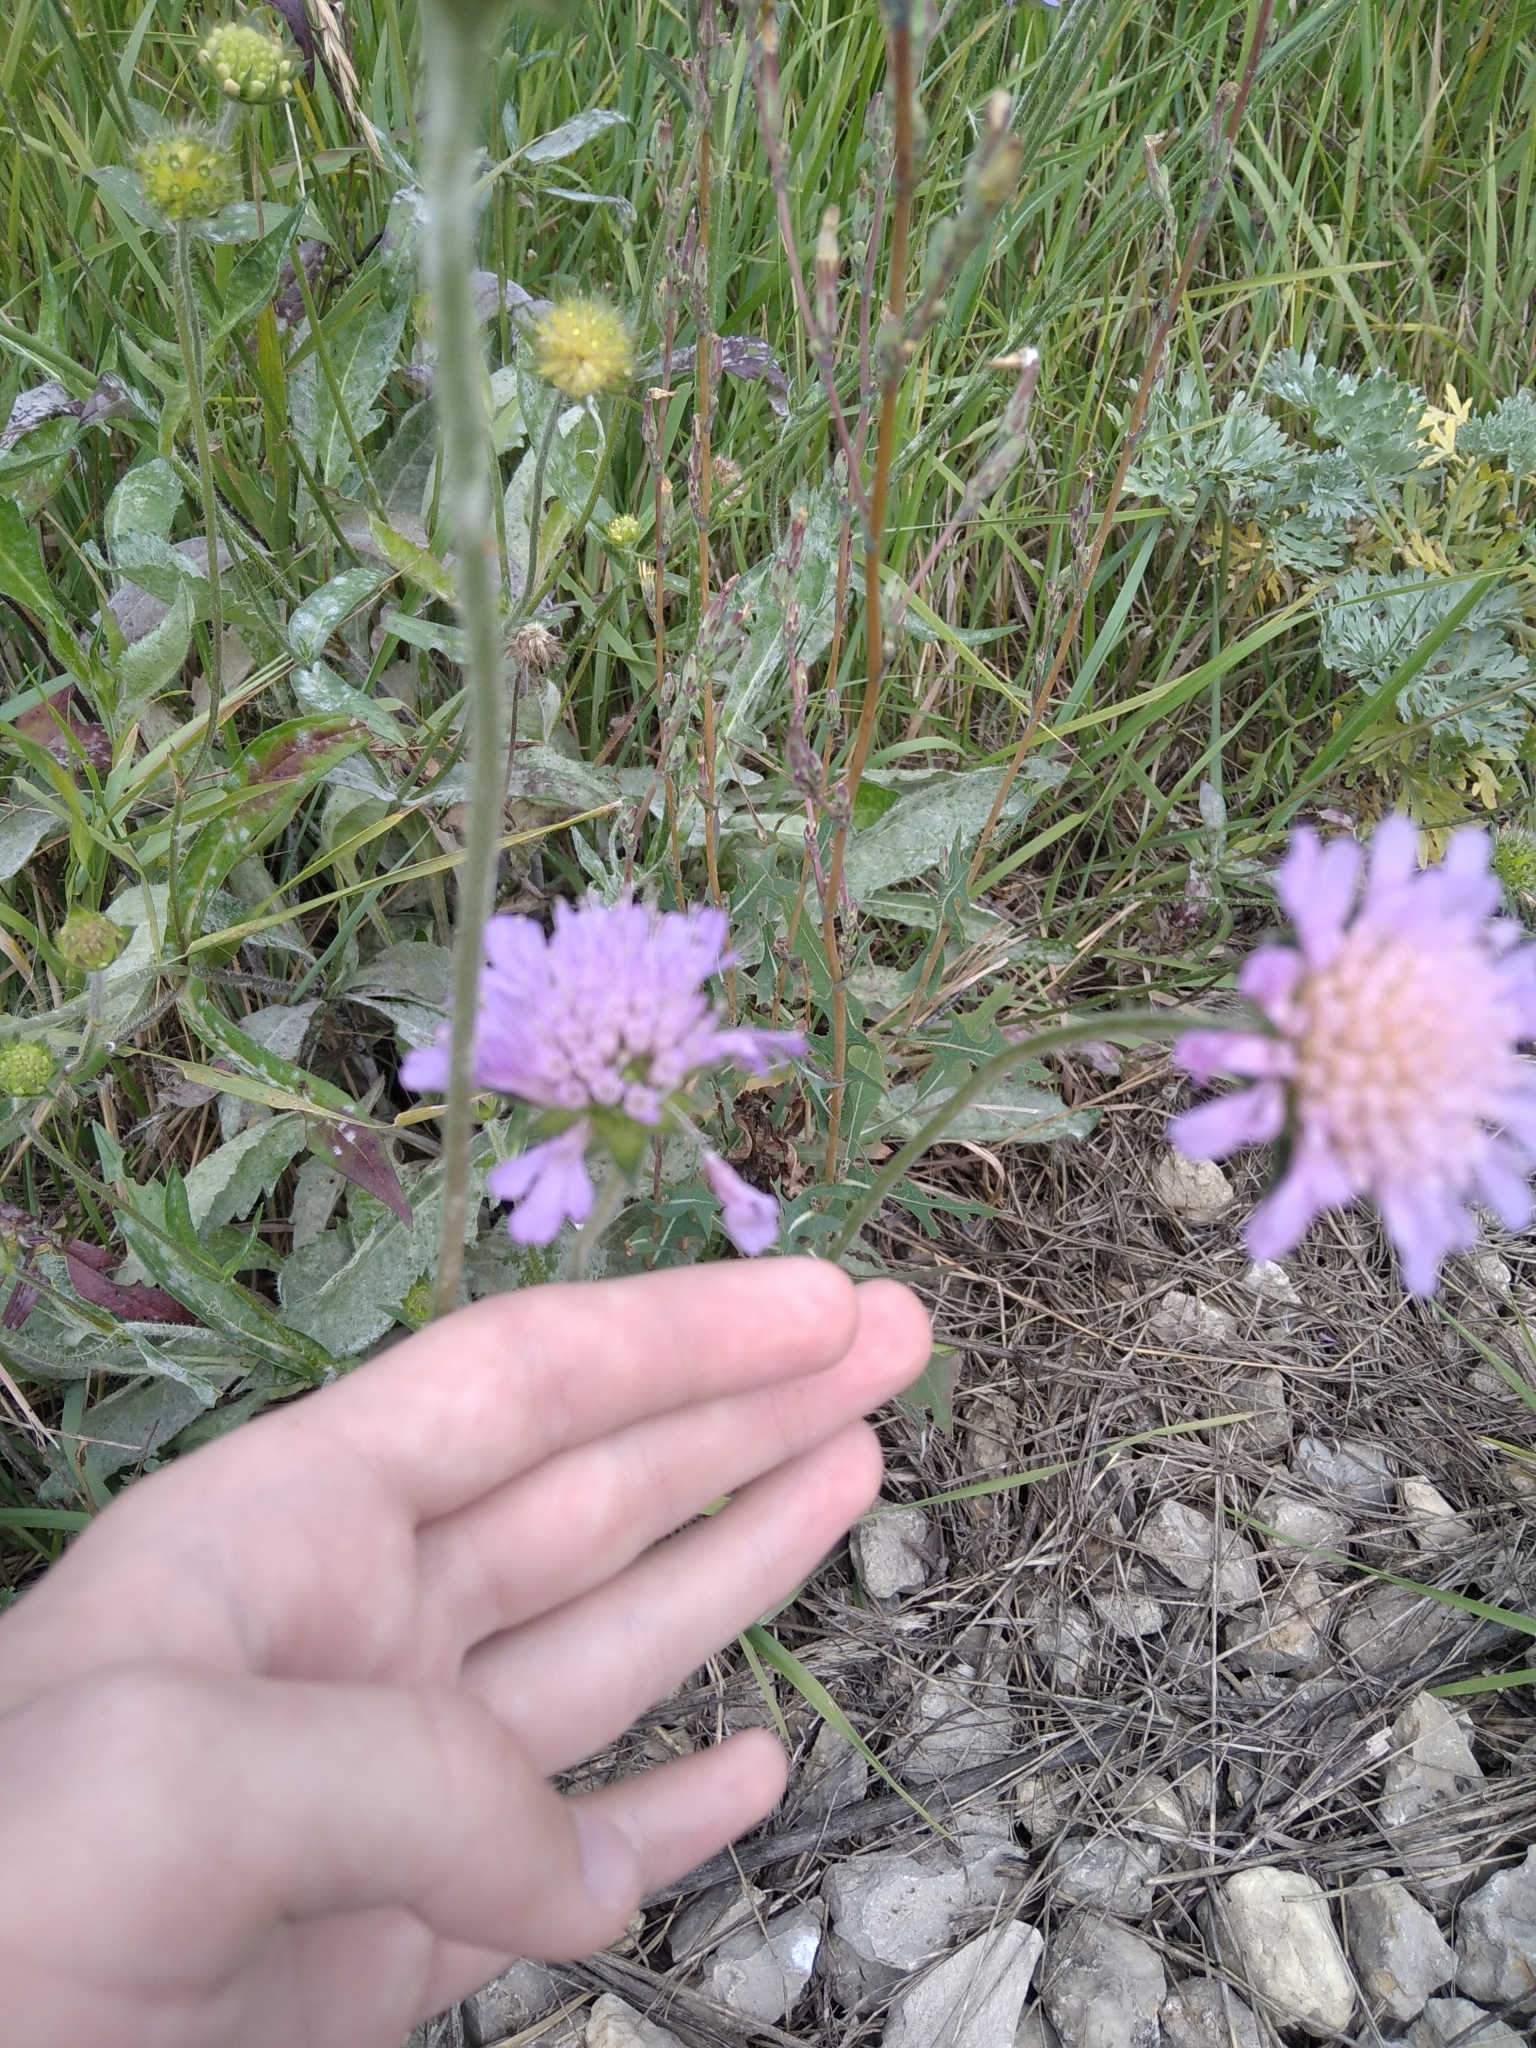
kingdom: Plantae
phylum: Tracheophyta
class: Magnoliopsida
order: Dipsacales
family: Caprifoliaceae
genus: Knautia
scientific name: Knautia arvensis
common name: Field scabiosa
